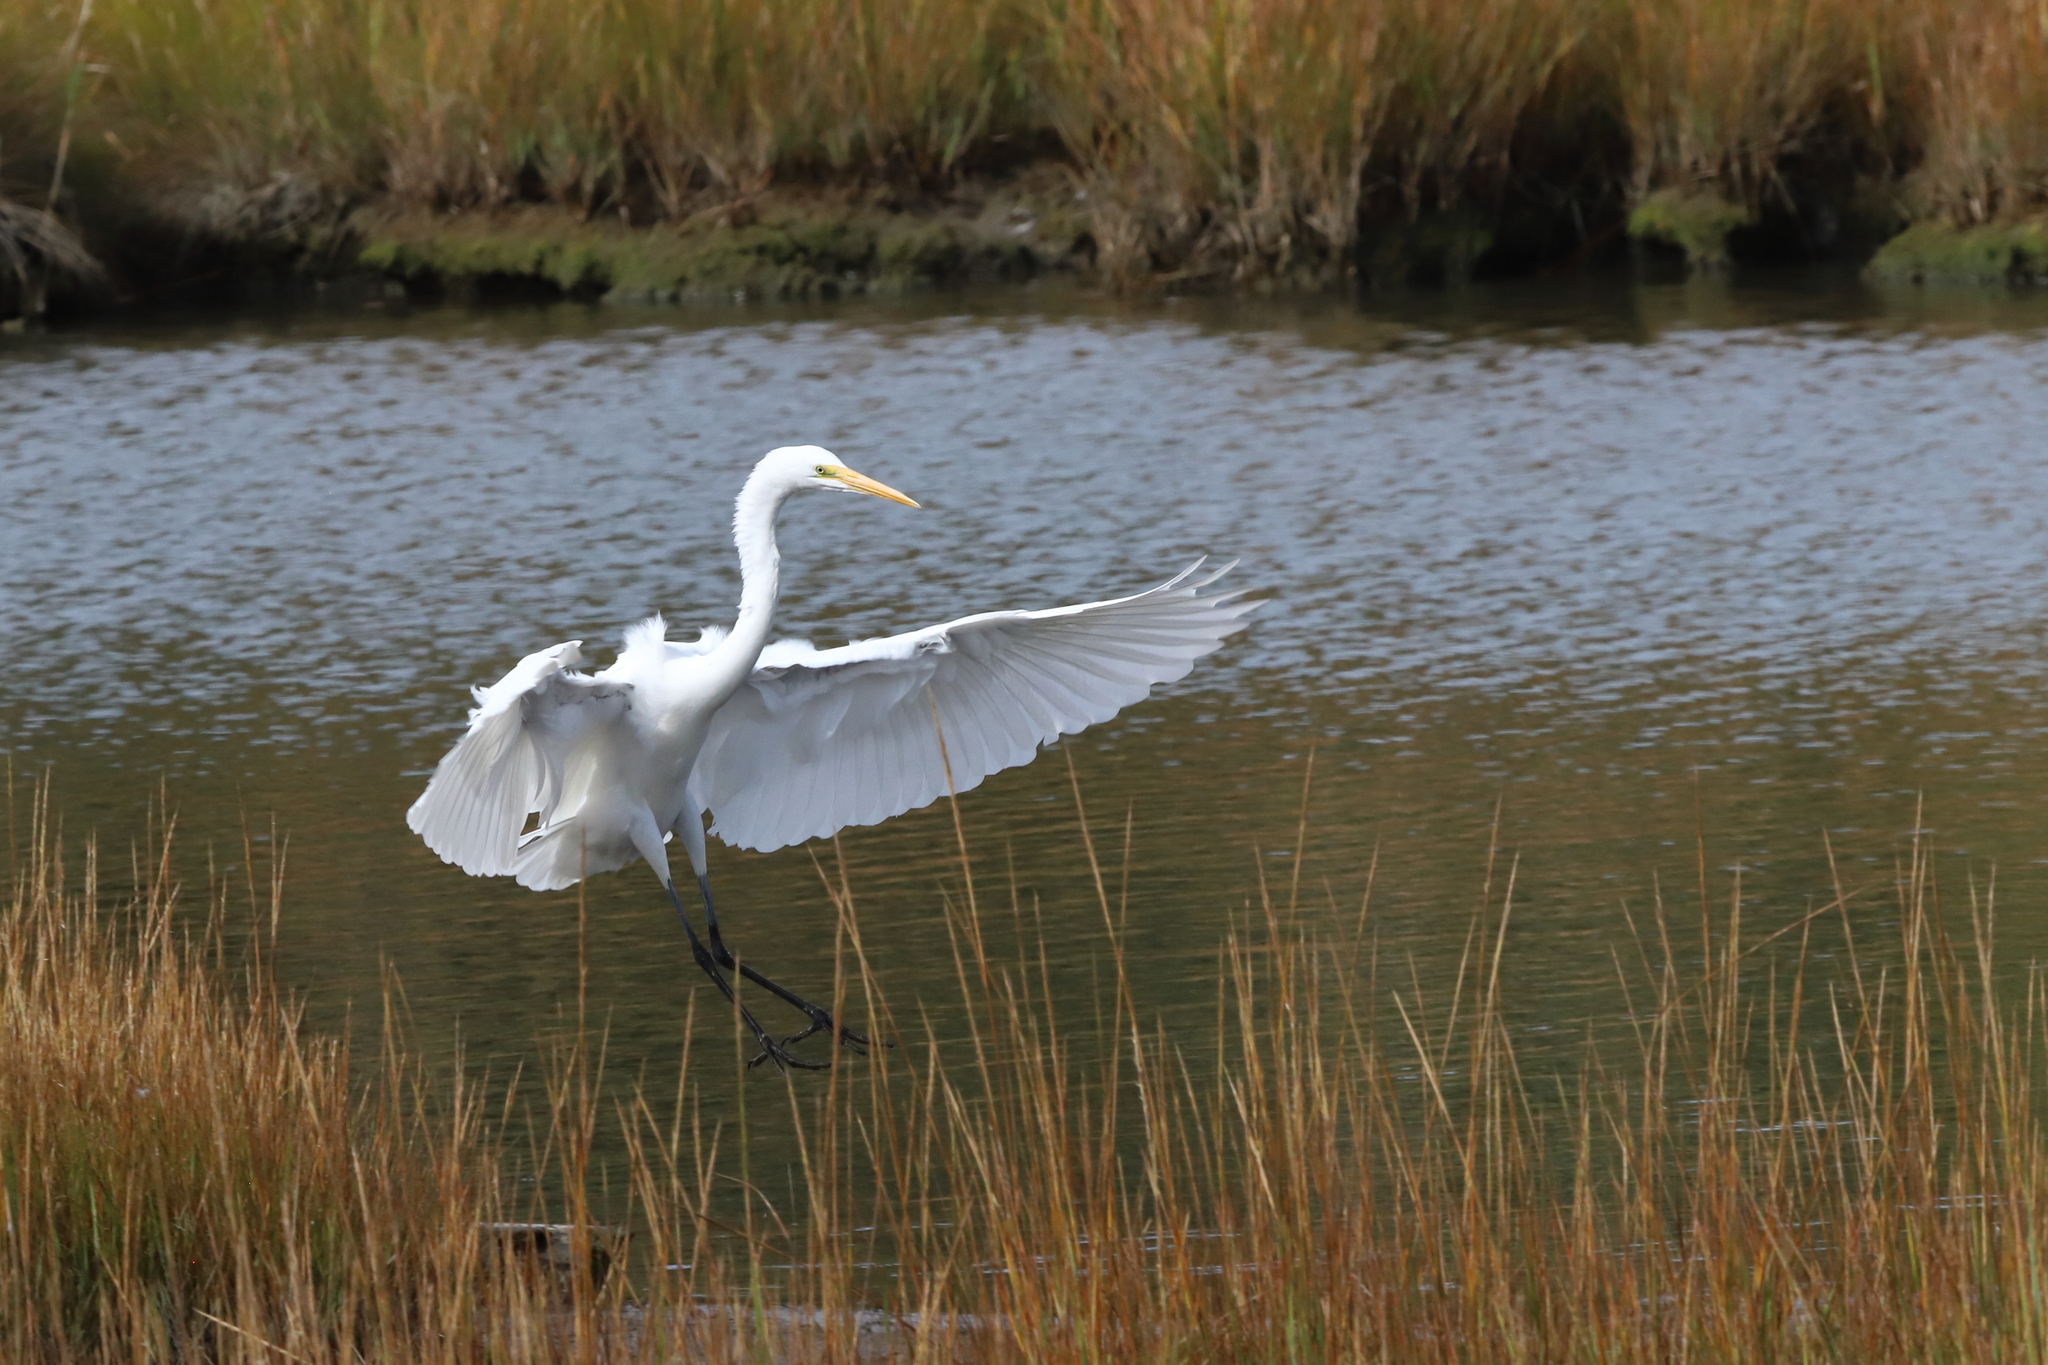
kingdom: Animalia
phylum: Chordata
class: Aves
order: Pelecaniformes
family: Ardeidae
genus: Ardea
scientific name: Ardea alba
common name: Great egret
